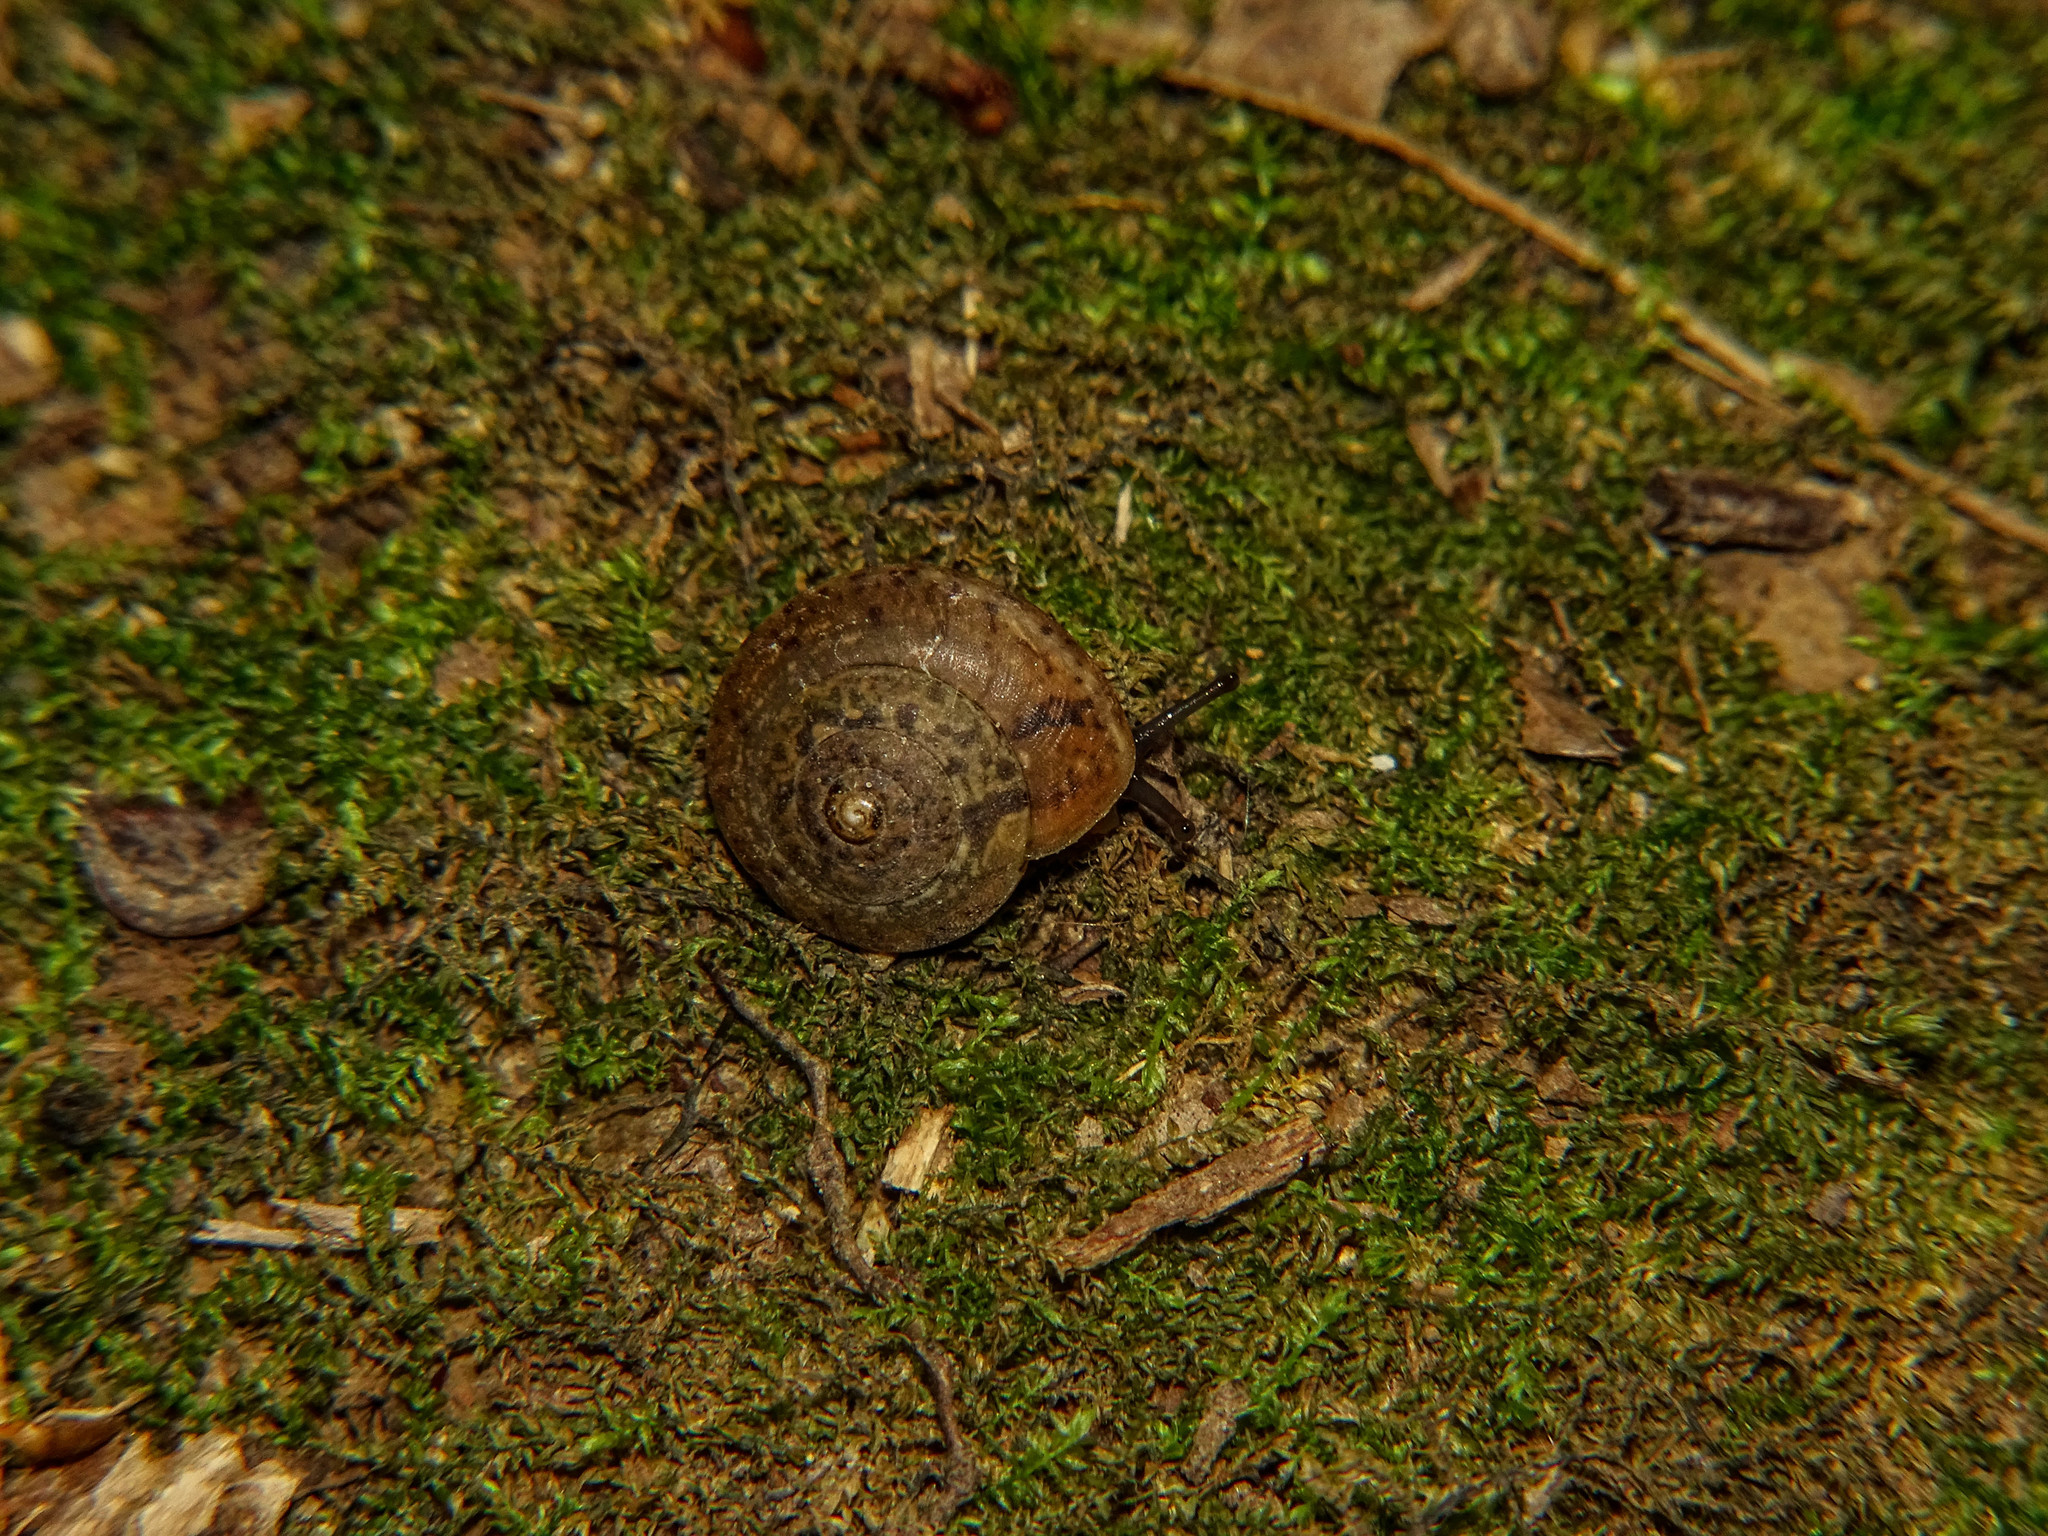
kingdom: Animalia
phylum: Mollusca
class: Gastropoda
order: Stylommatophora
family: Hygromiidae
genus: Monachoides
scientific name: Monachoides incarnatus
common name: Incarnate snail
